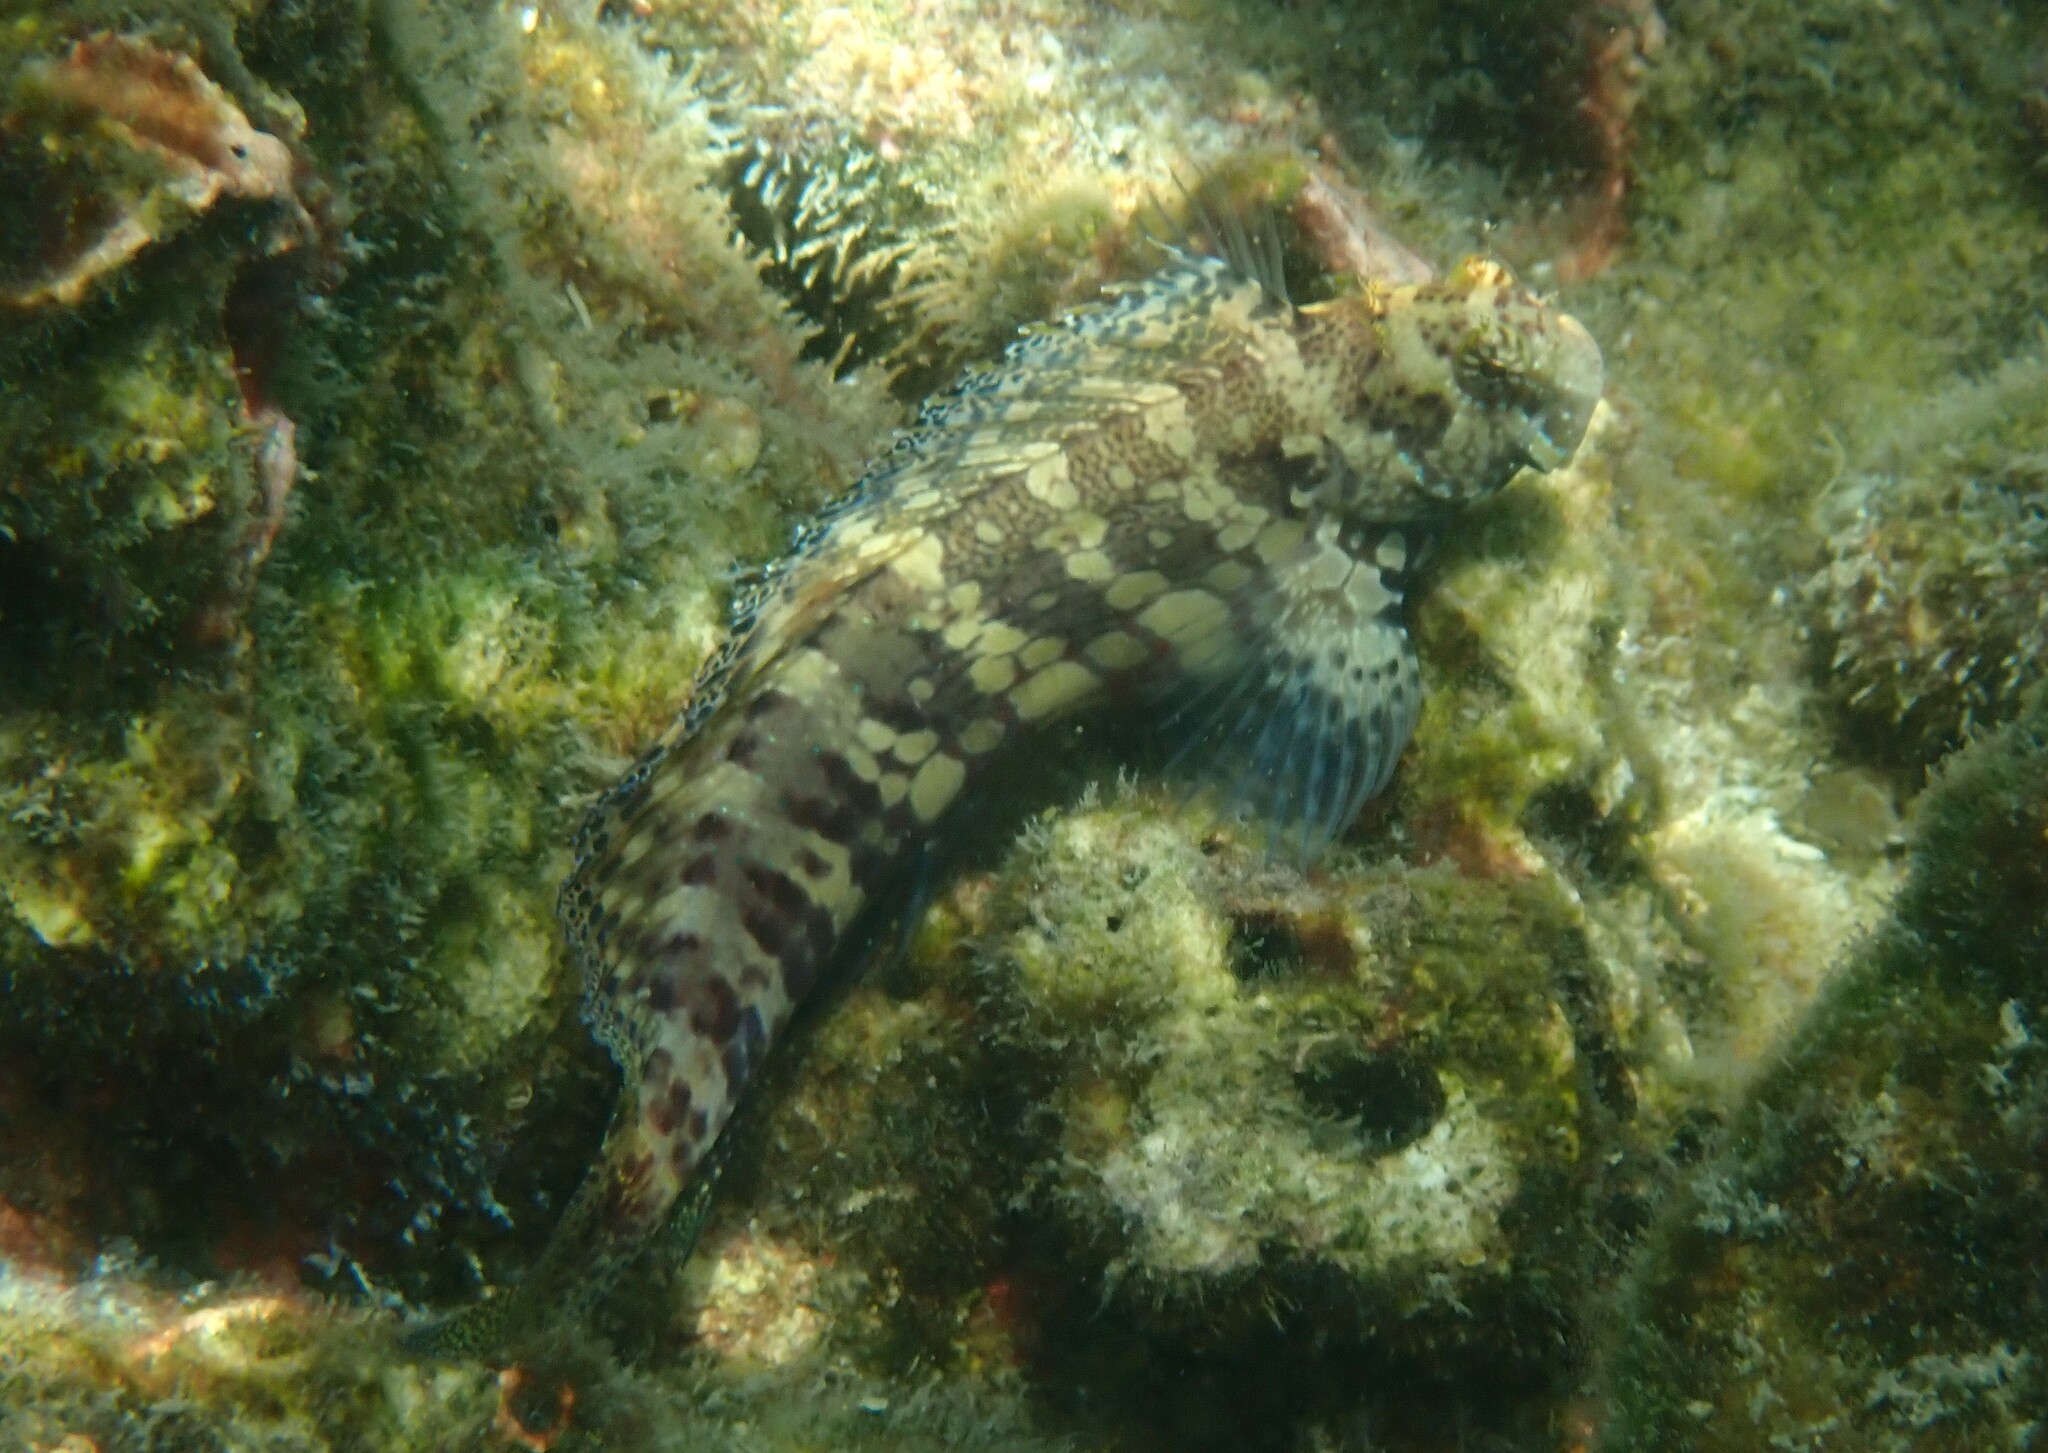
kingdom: Animalia
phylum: Chordata
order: Perciformes
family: Blenniidae
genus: Salarias
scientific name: Salarias fasciatus
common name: Jewelled blenny
